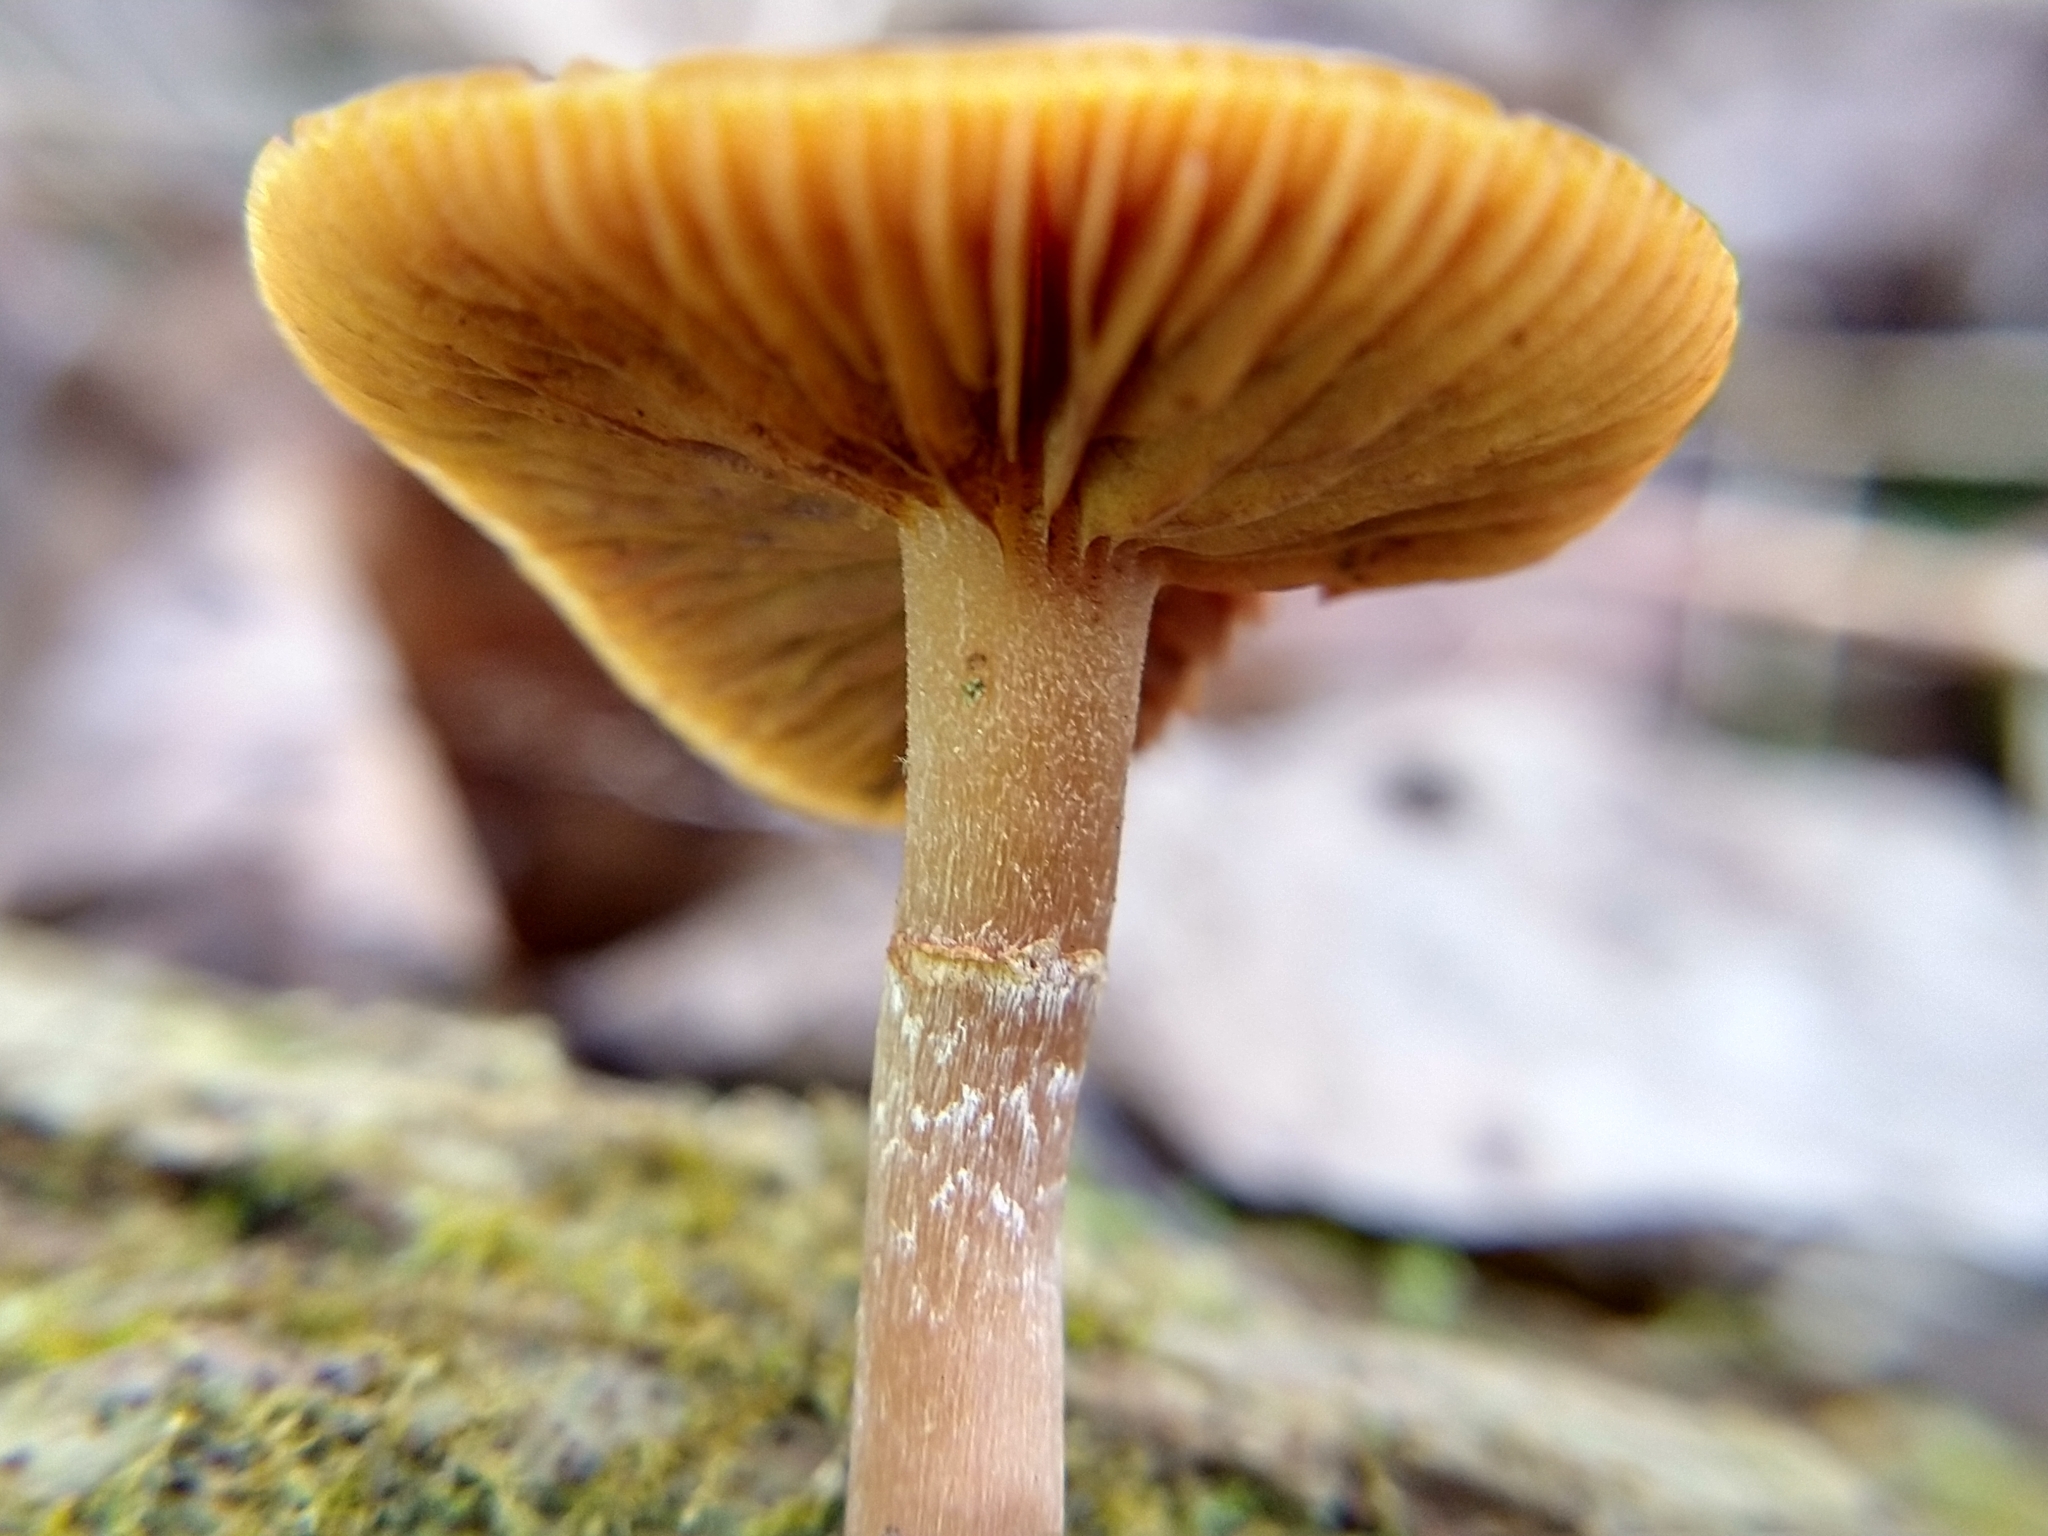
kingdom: Fungi
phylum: Basidiomycota
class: Agaricomycetes
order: Agaricales
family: Hymenogastraceae
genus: Galerina
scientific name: Galerina marginata
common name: Funeral bell
